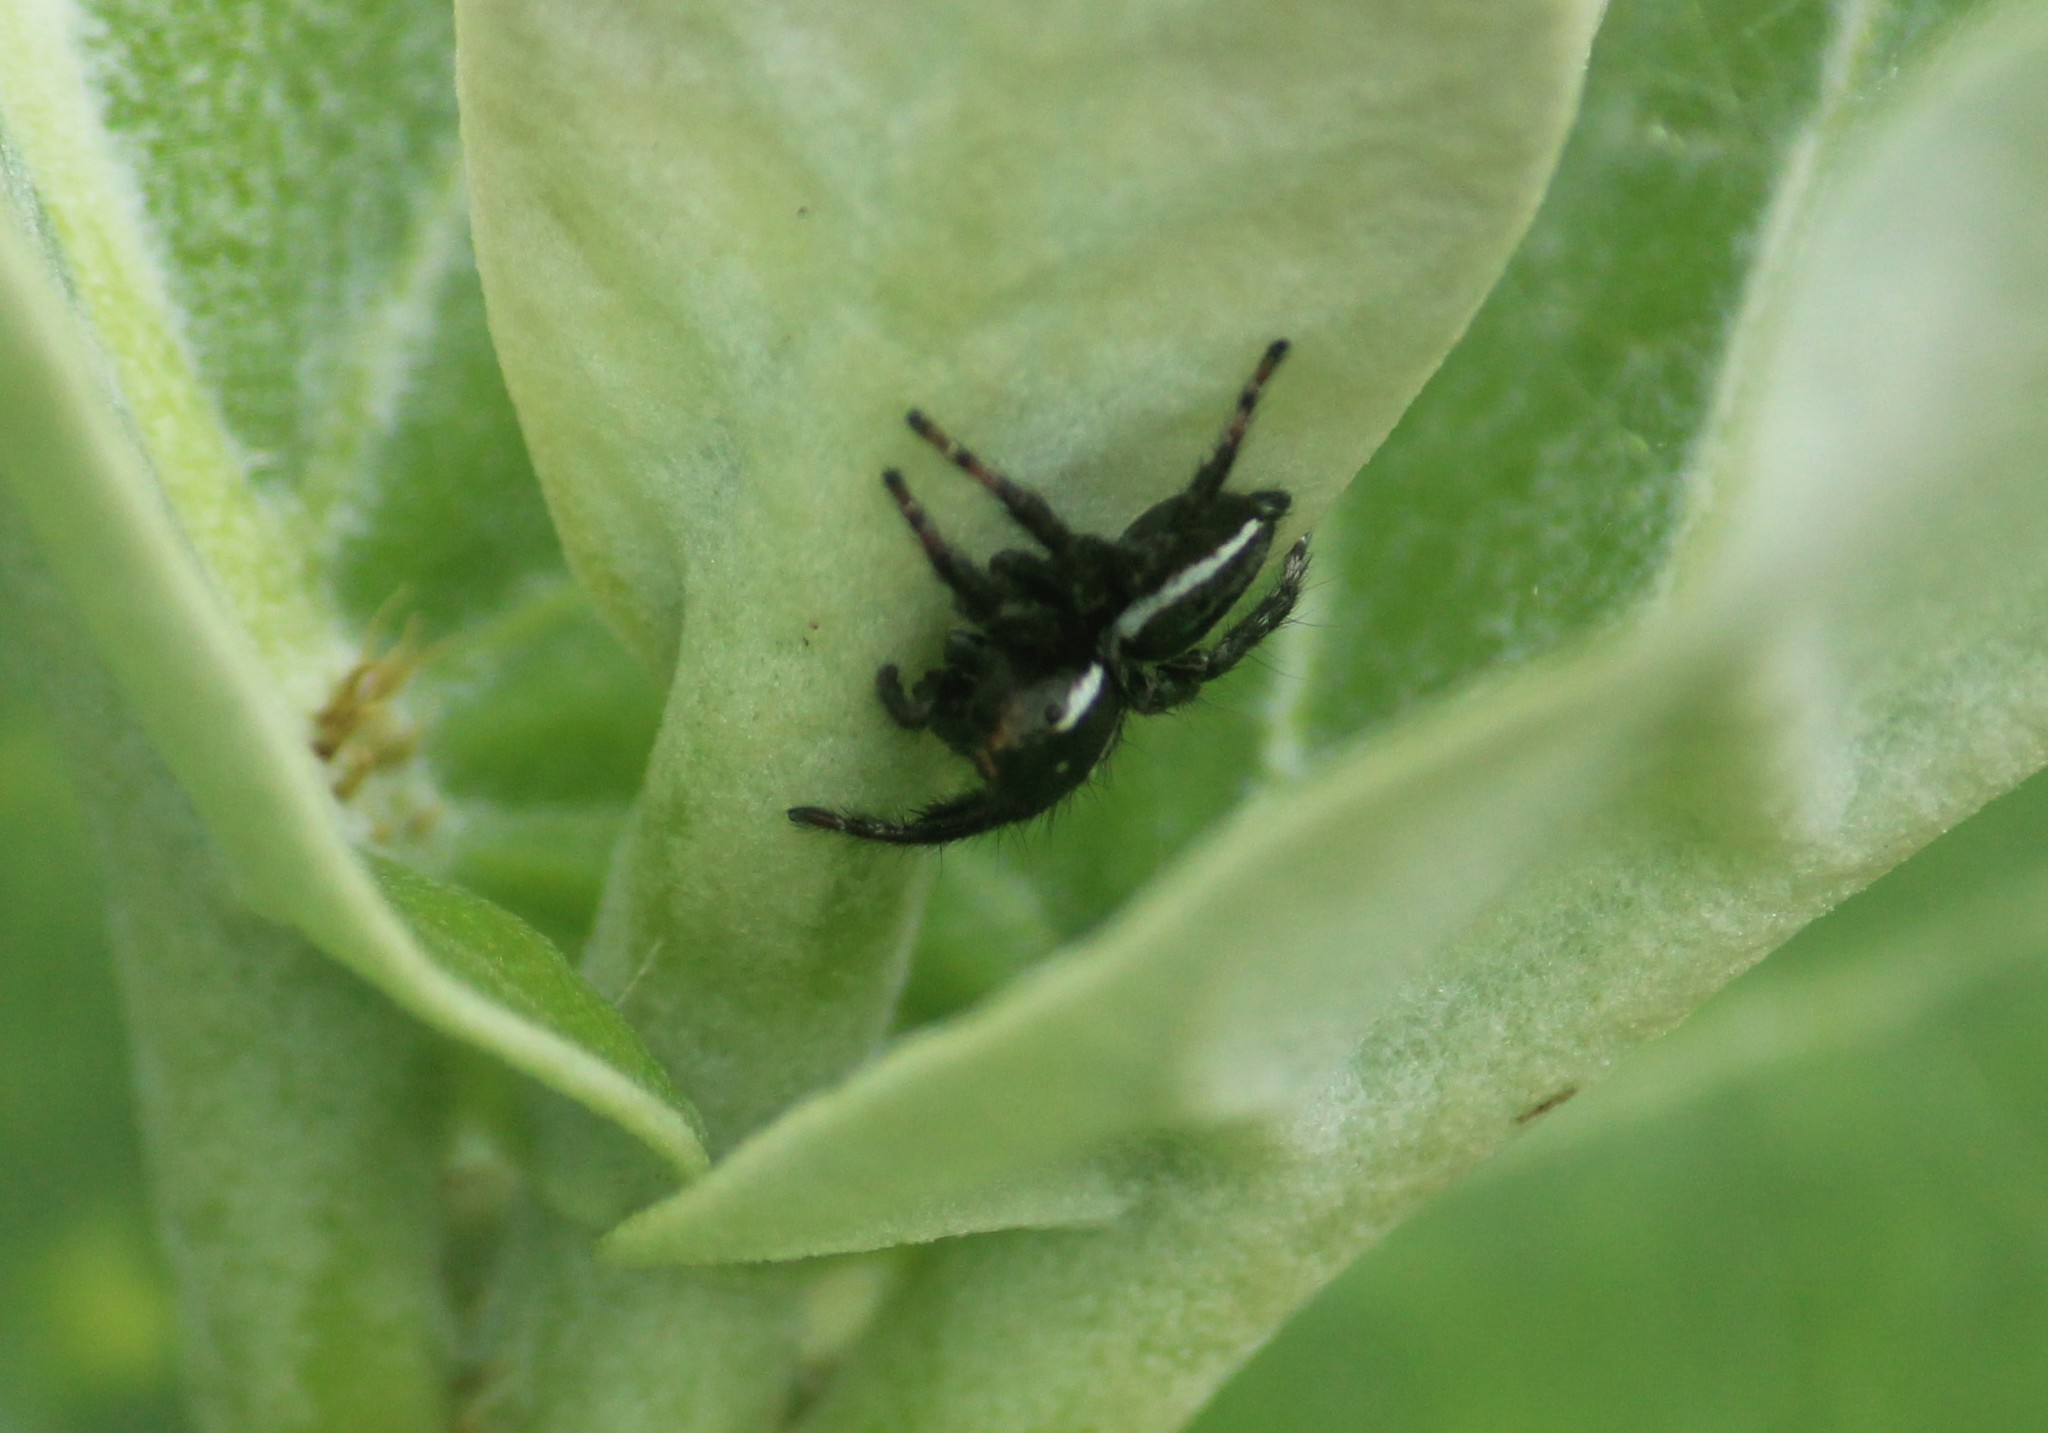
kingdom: Animalia
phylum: Arthropoda
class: Arachnida
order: Araneae
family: Salticidae
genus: Carrhotus
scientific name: Carrhotus viduus
